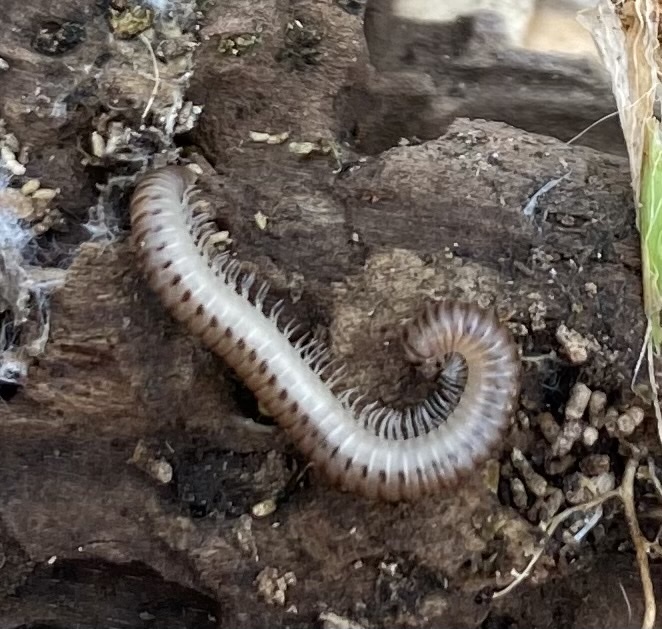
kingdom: Animalia
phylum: Arthropoda
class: Diplopoda
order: Julida
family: Julidae
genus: Cylindroiulus
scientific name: Cylindroiulus punctatus
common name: Blunt-tailed millipede
